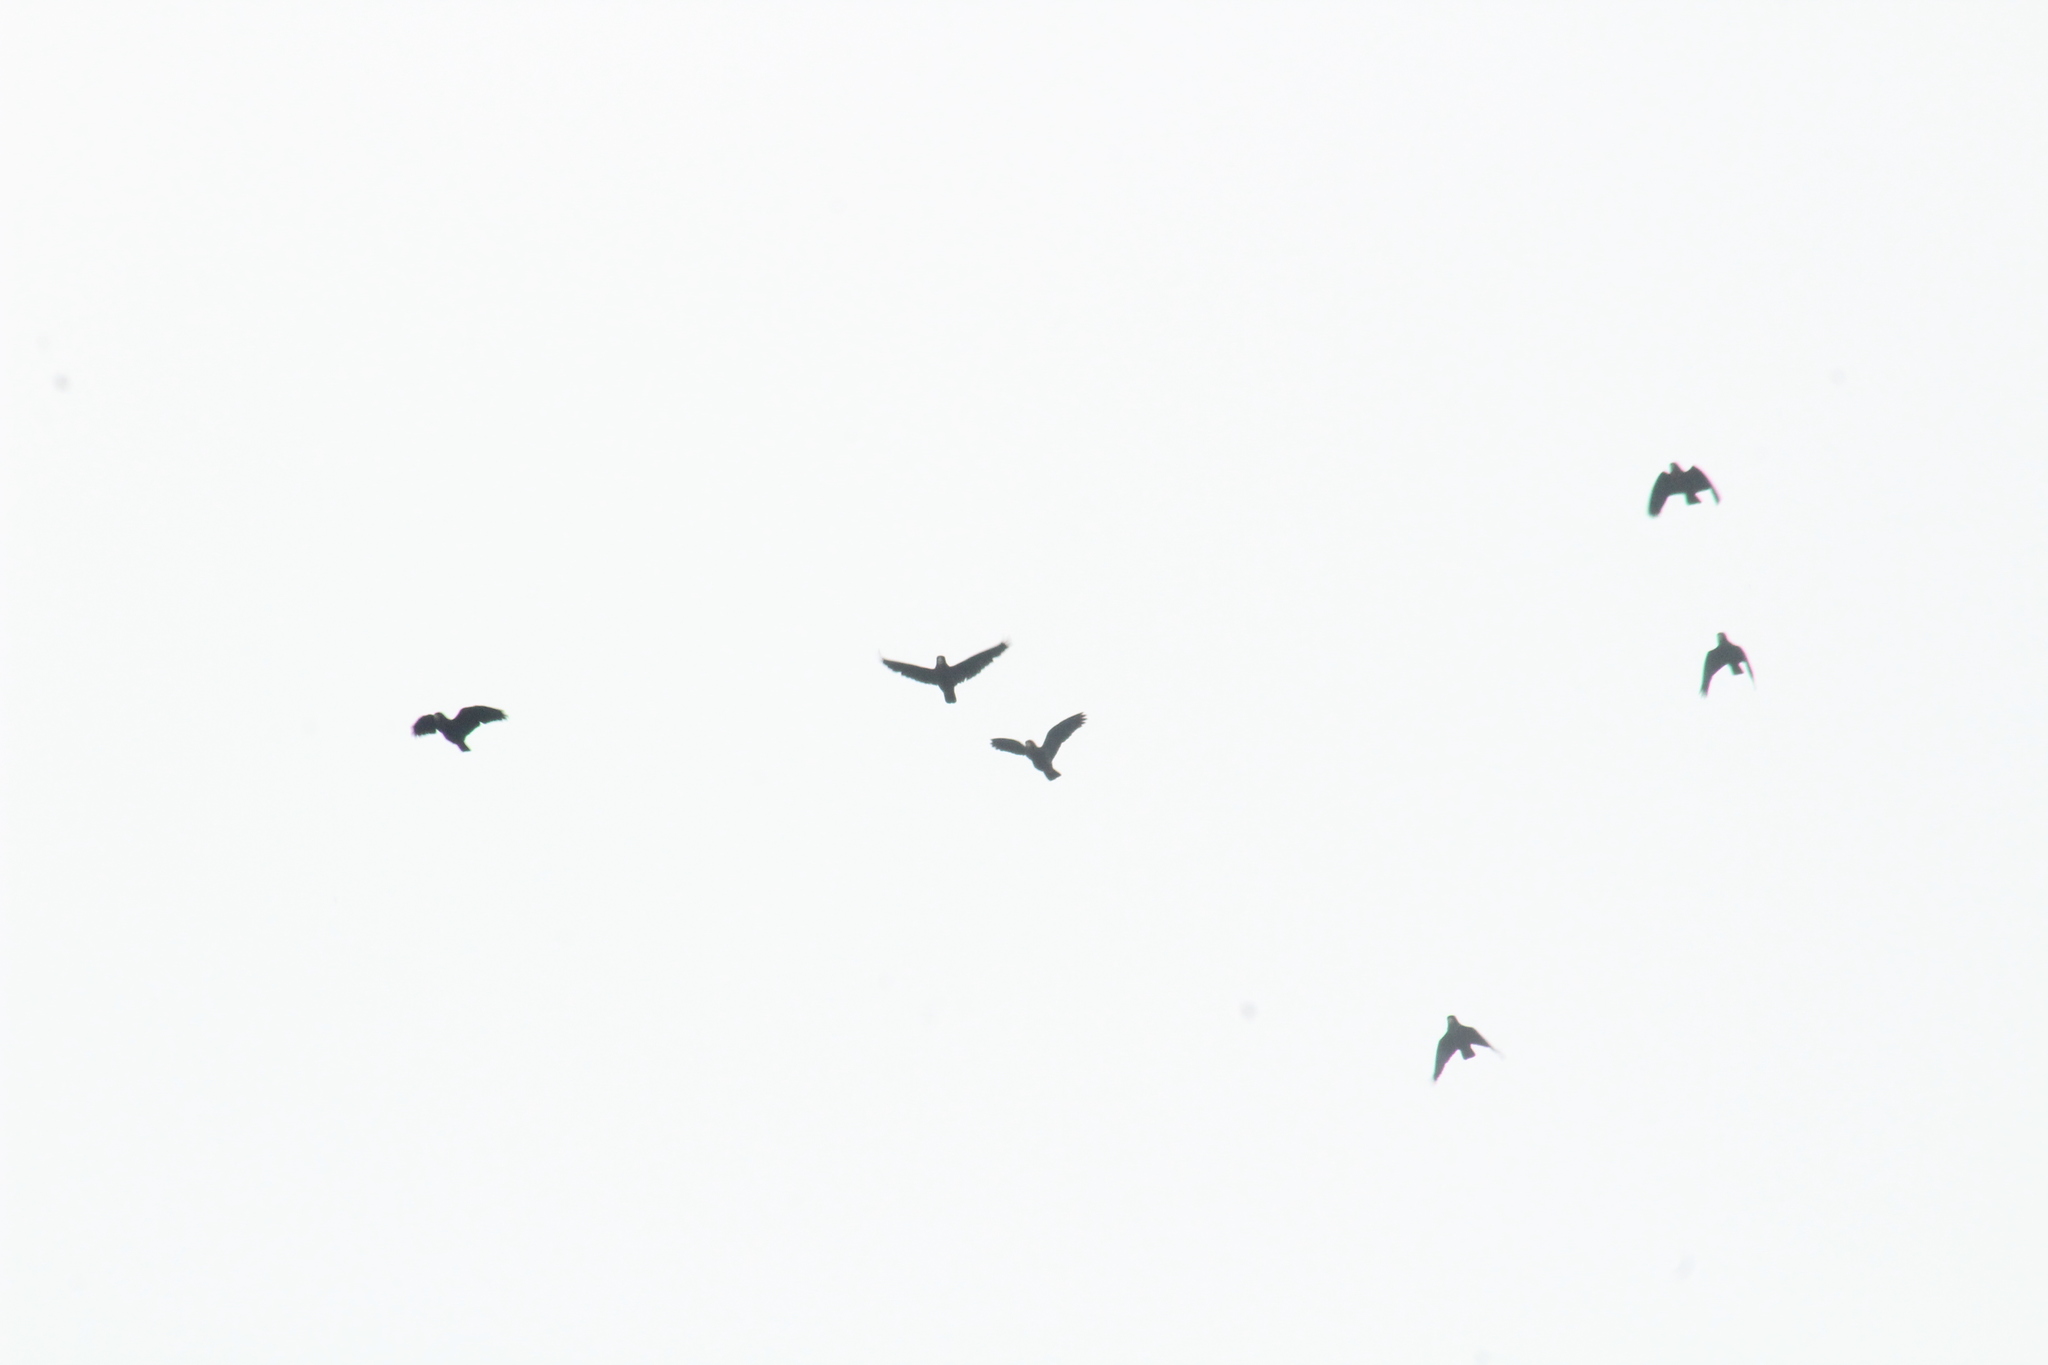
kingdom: Animalia
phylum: Chordata
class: Aves
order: Psittaciformes
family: Psittacidae
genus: Pionus
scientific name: Pionus chalcopterus
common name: Bronze-winged parrot
